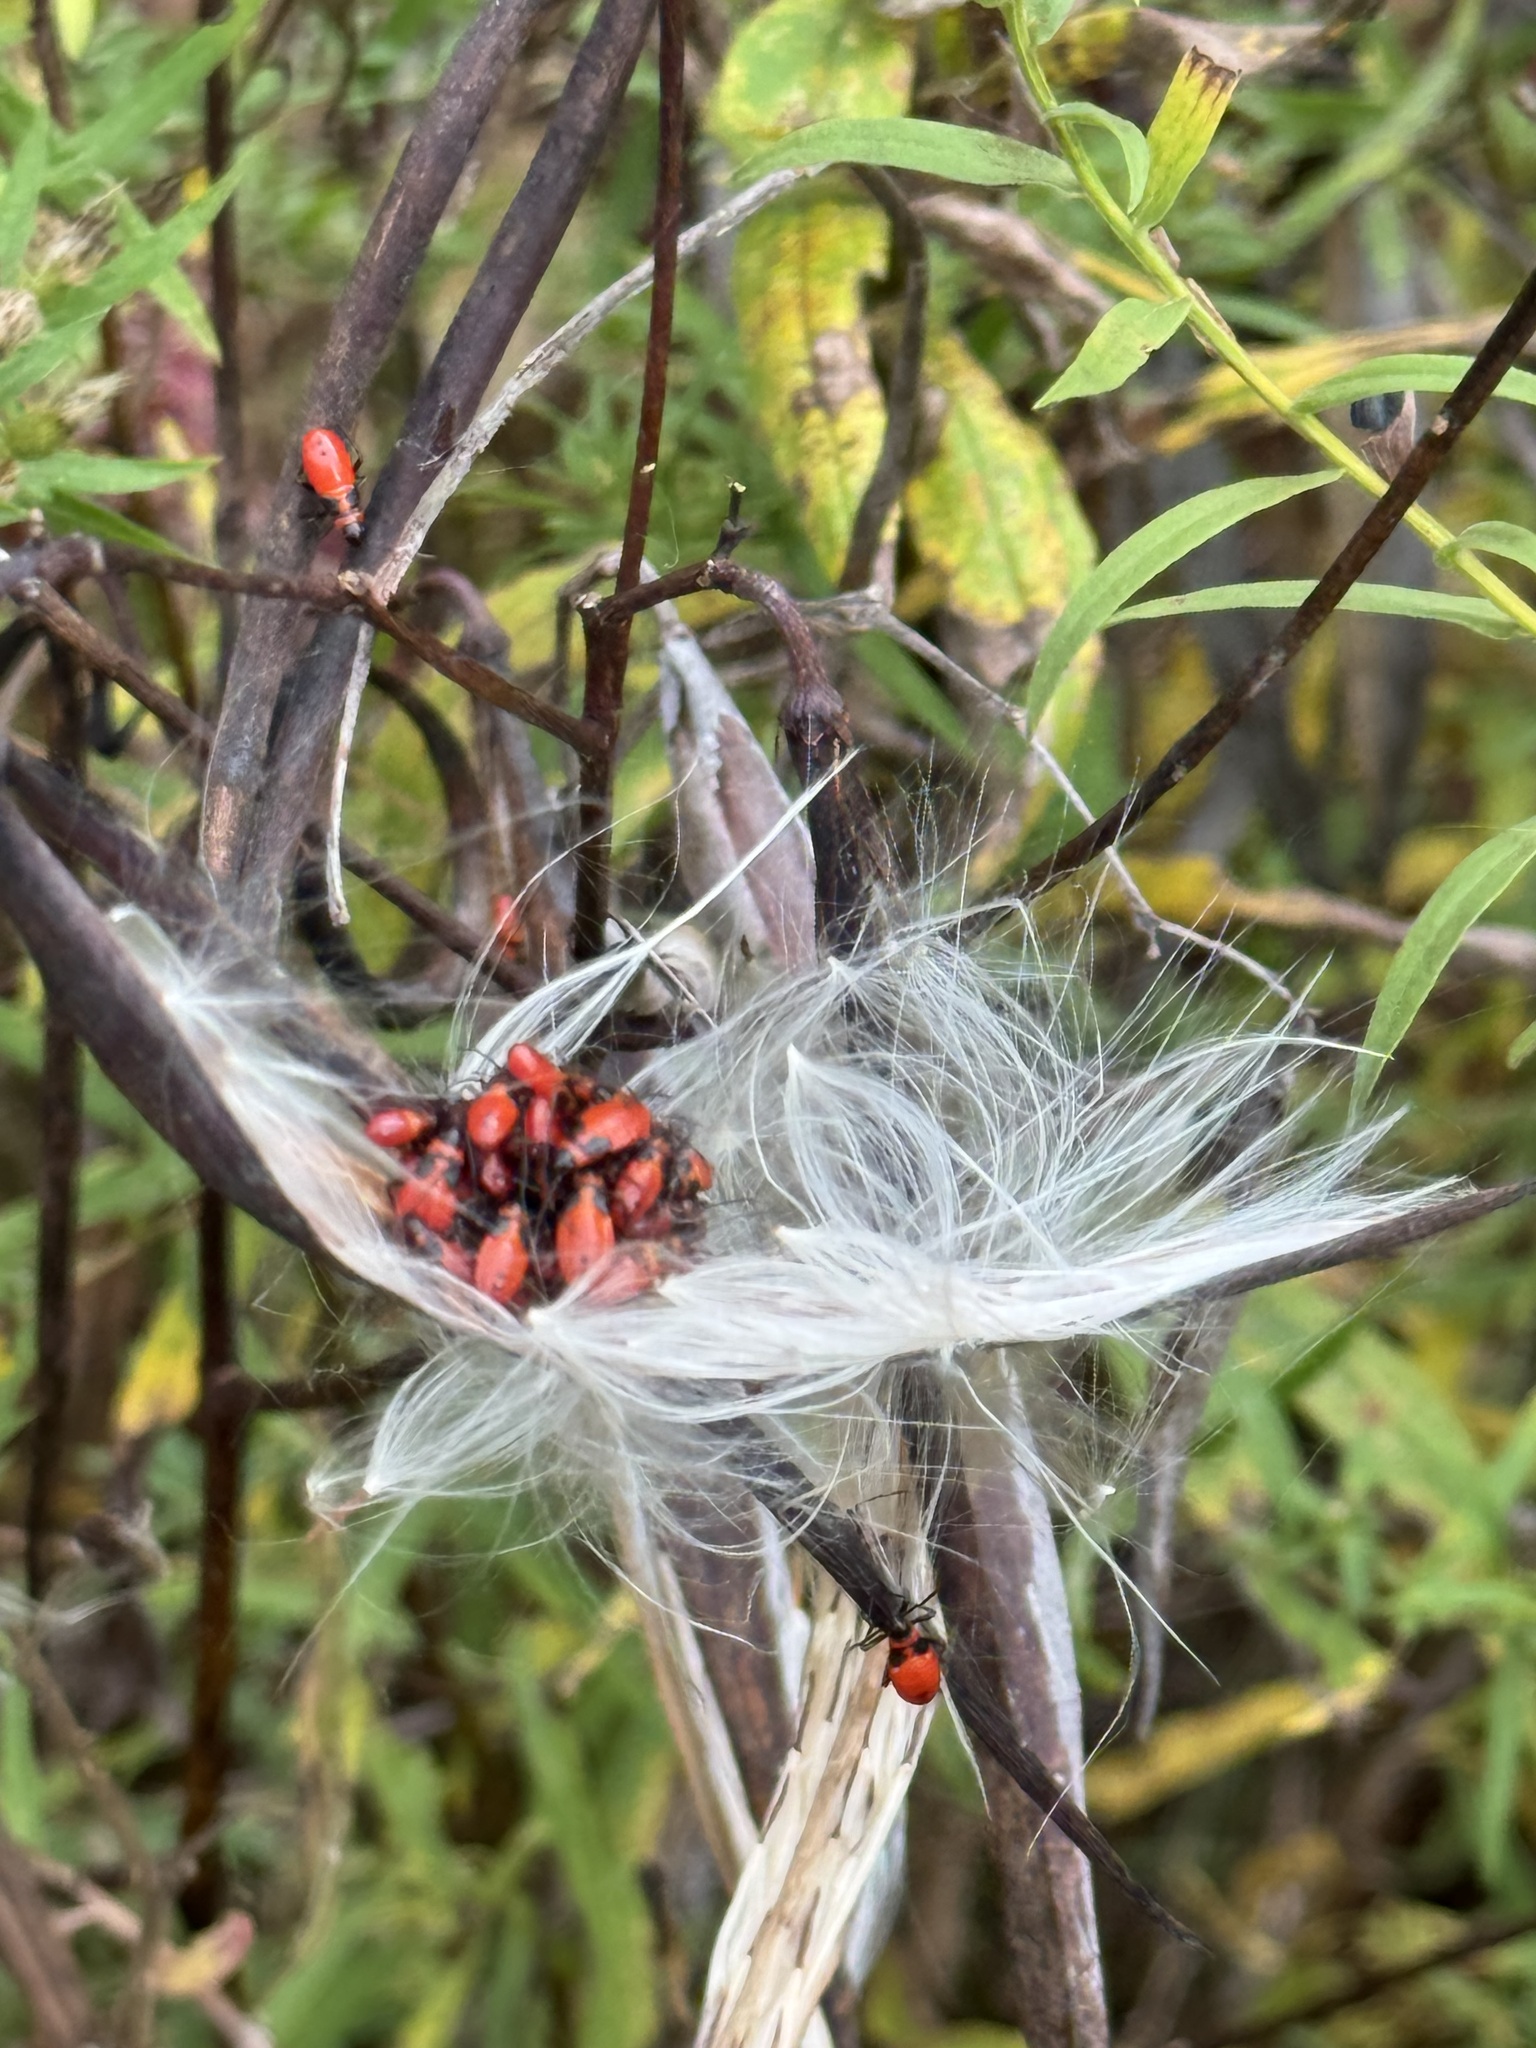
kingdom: Animalia
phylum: Arthropoda
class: Insecta
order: Hemiptera
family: Lygaeidae
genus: Oncopeltus
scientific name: Oncopeltus fasciatus
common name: Large milkweed bug
